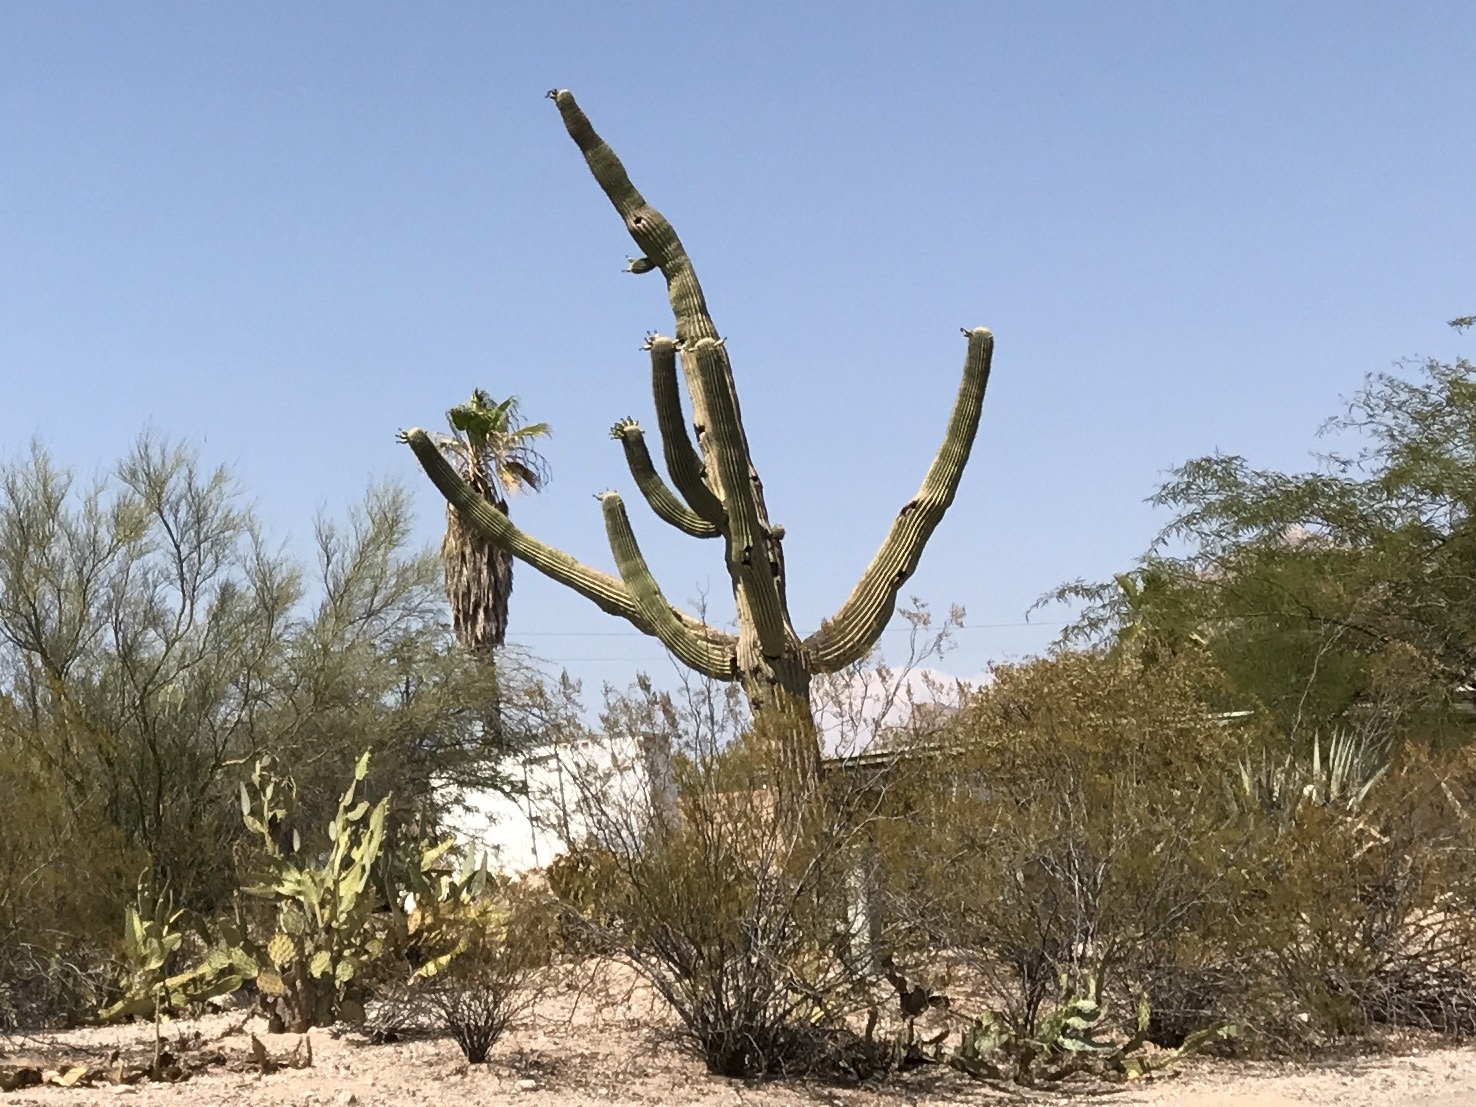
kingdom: Plantae
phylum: Tracheophyta
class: Magnoliopsida
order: Caryophyllales
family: Cactaceae
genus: Carnegiea
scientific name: Carnegiea gigantea
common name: Saguaro
